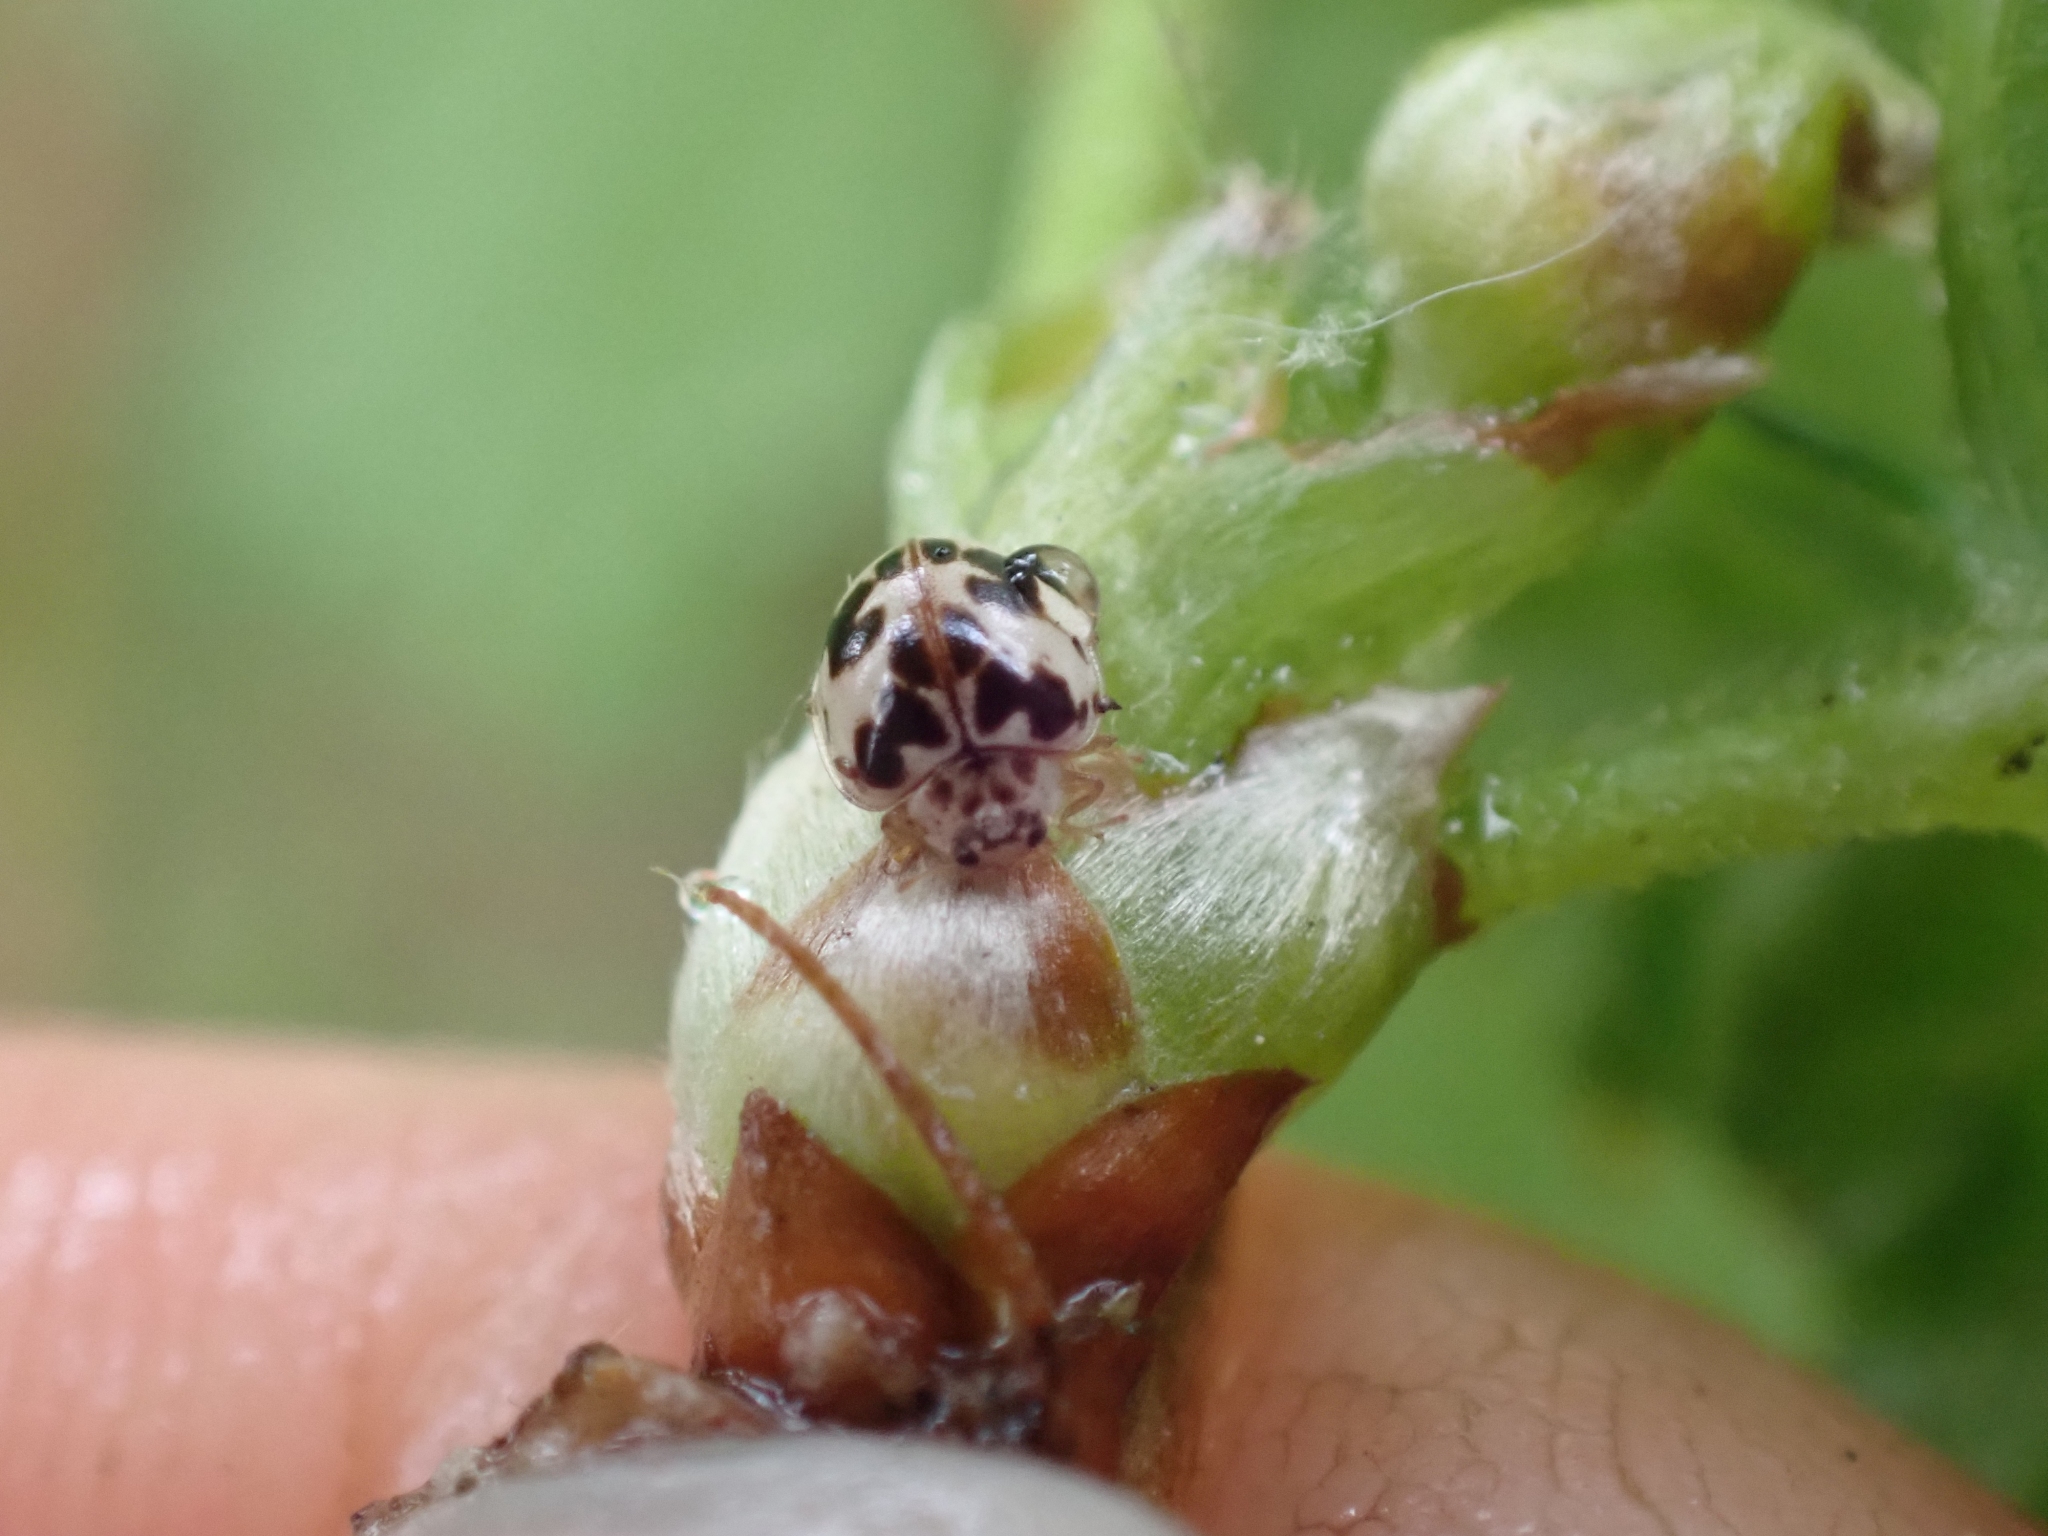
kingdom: Animalia
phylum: Arthropoda
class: Insecta
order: Coleoptera
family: Coccinellidae
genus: Psyllobora
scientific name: Psyllobora borealis
